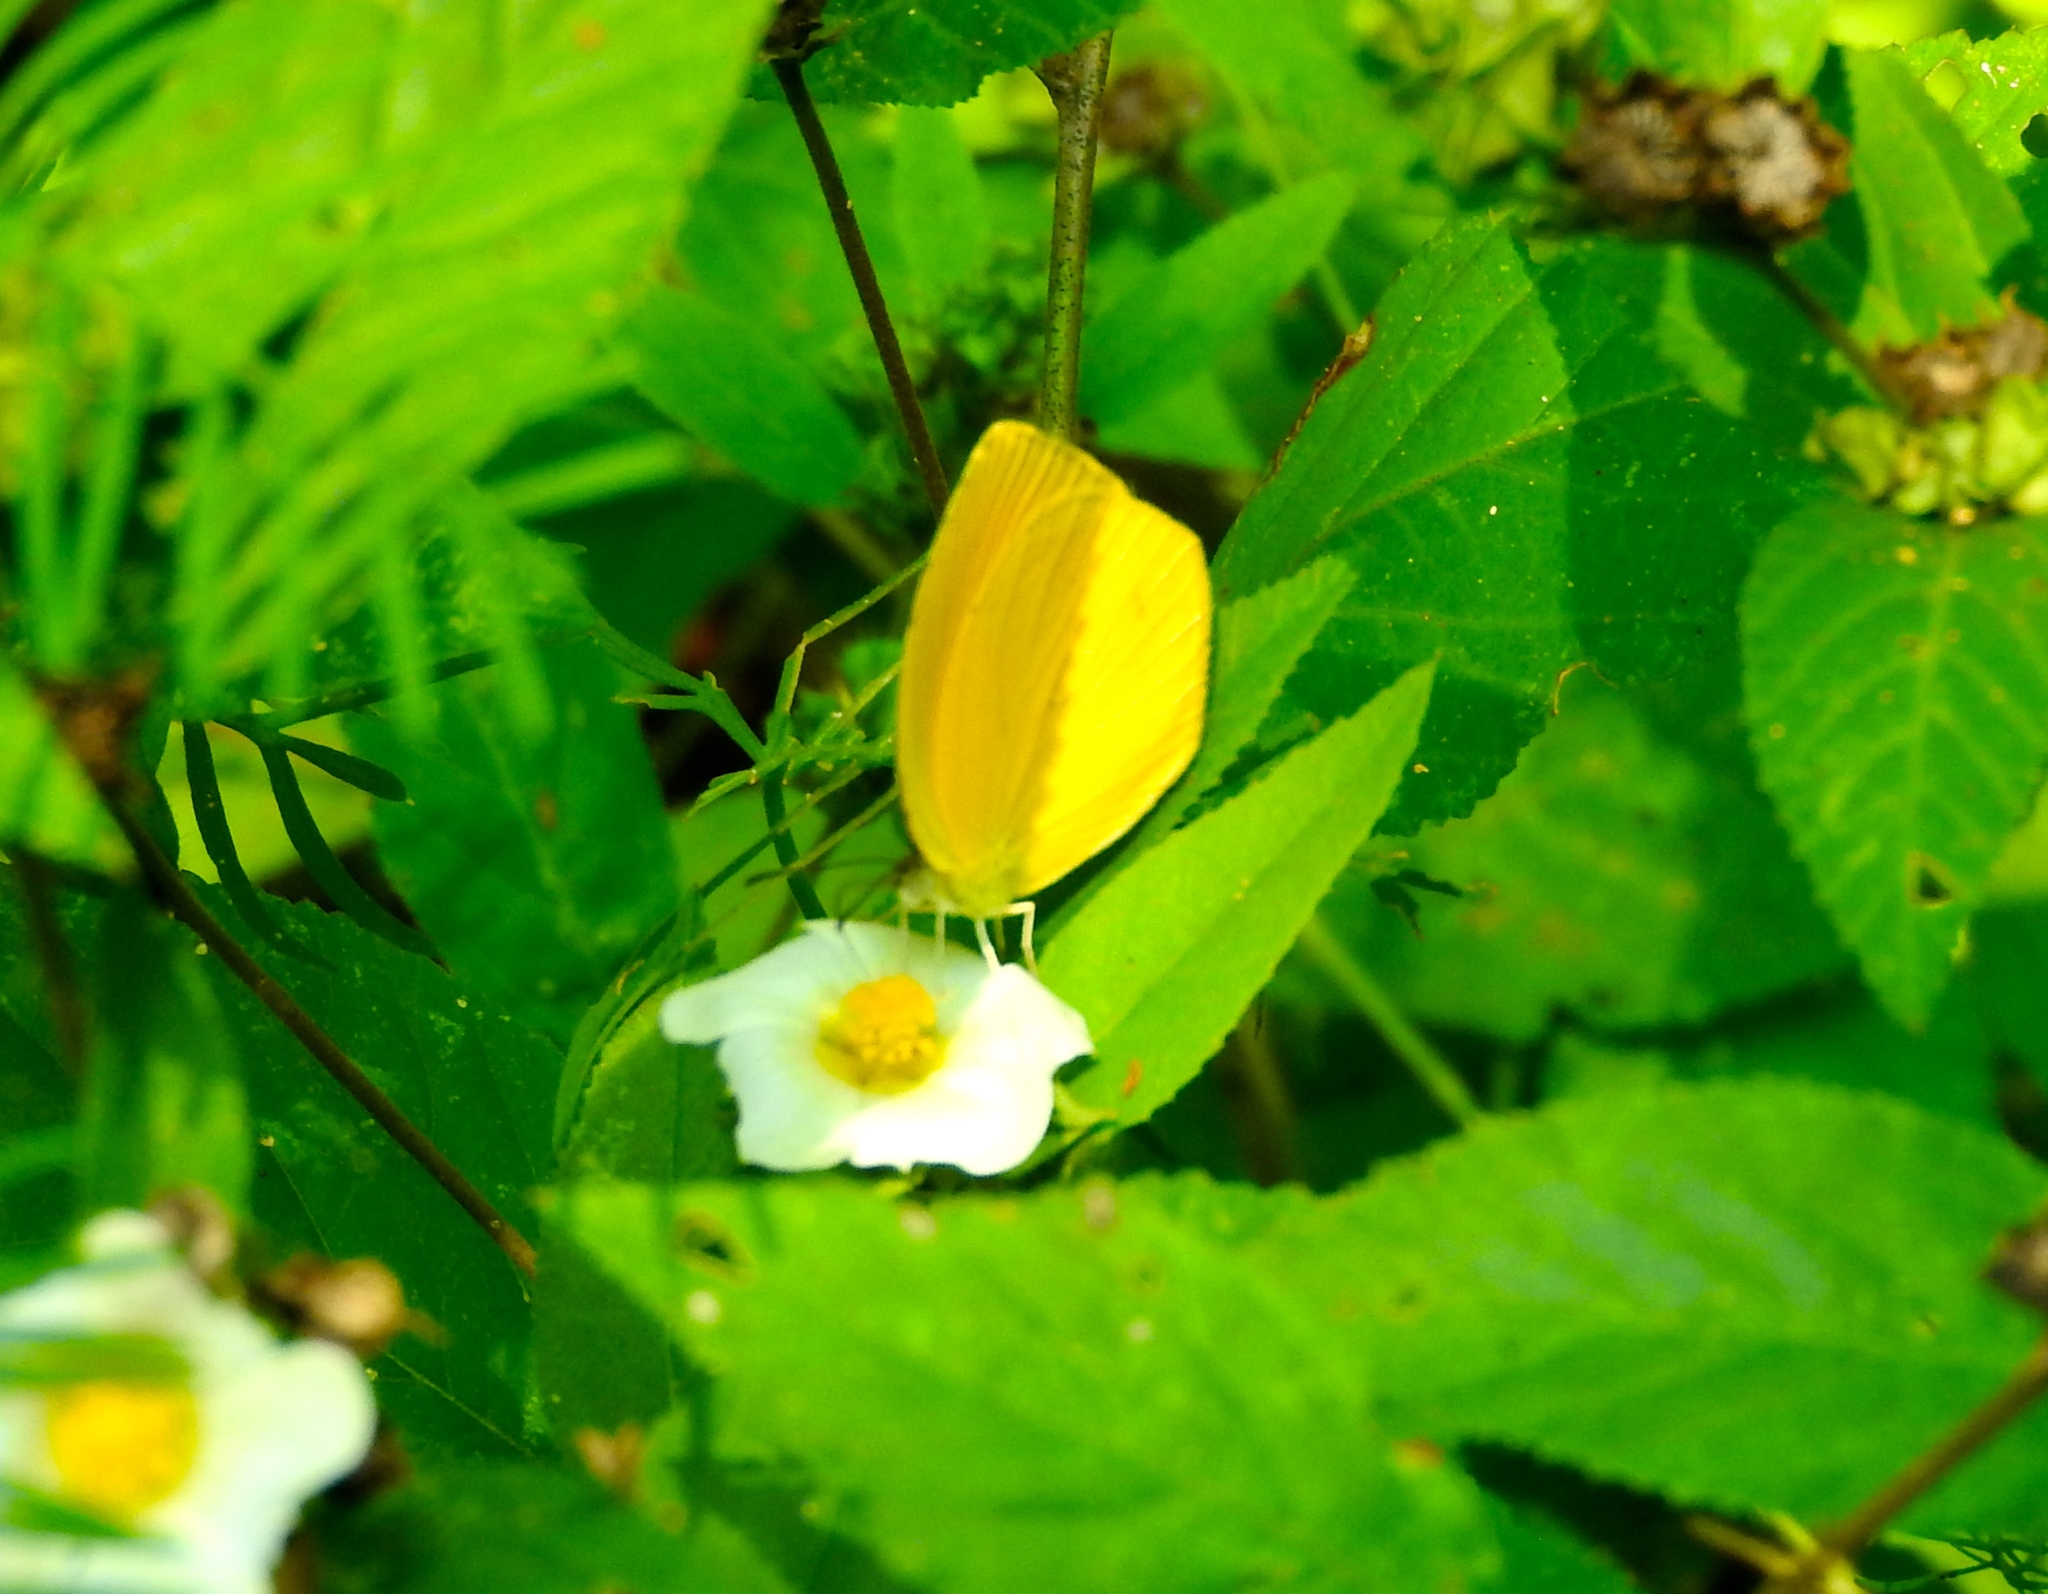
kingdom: Animalia
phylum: Arthropoda
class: Insecta
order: Lepidoptera
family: Pieridae
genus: Pyrisitia
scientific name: Pyrisitia proterpia
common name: Tailed orange
